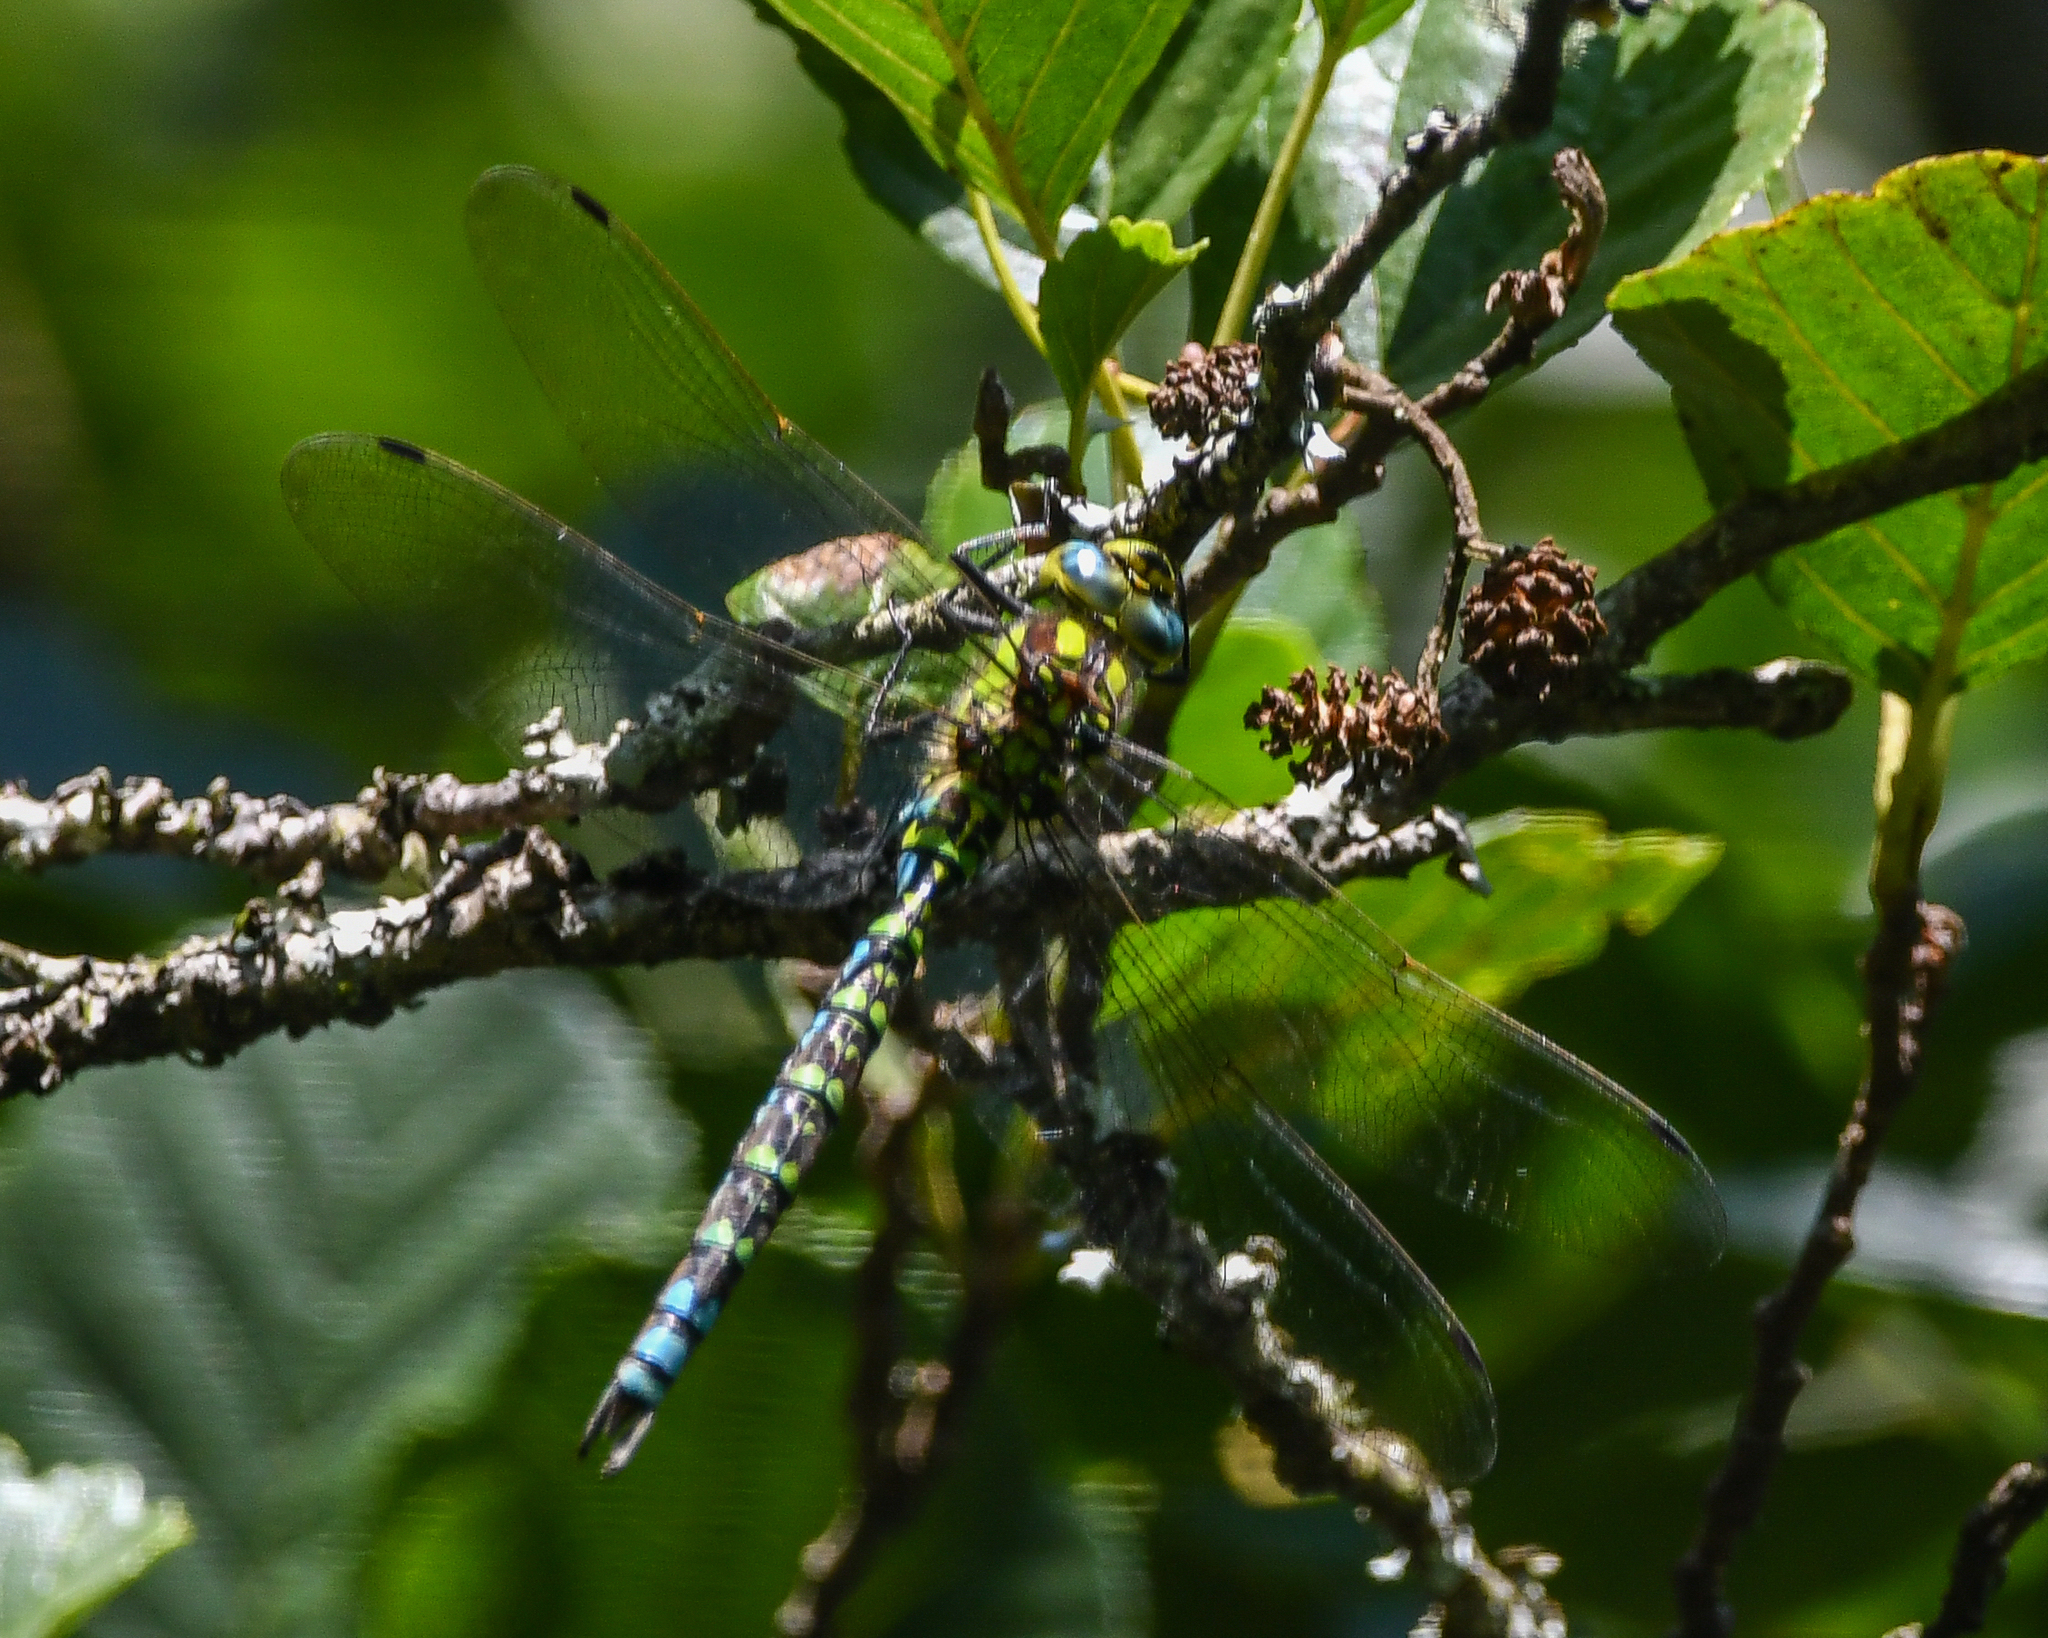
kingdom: Animalia
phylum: Arthropoda
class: Insecta
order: Odonata
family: Aeshnidae
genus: Aeshna
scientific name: Aeshna cyanea
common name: Southern hawker
